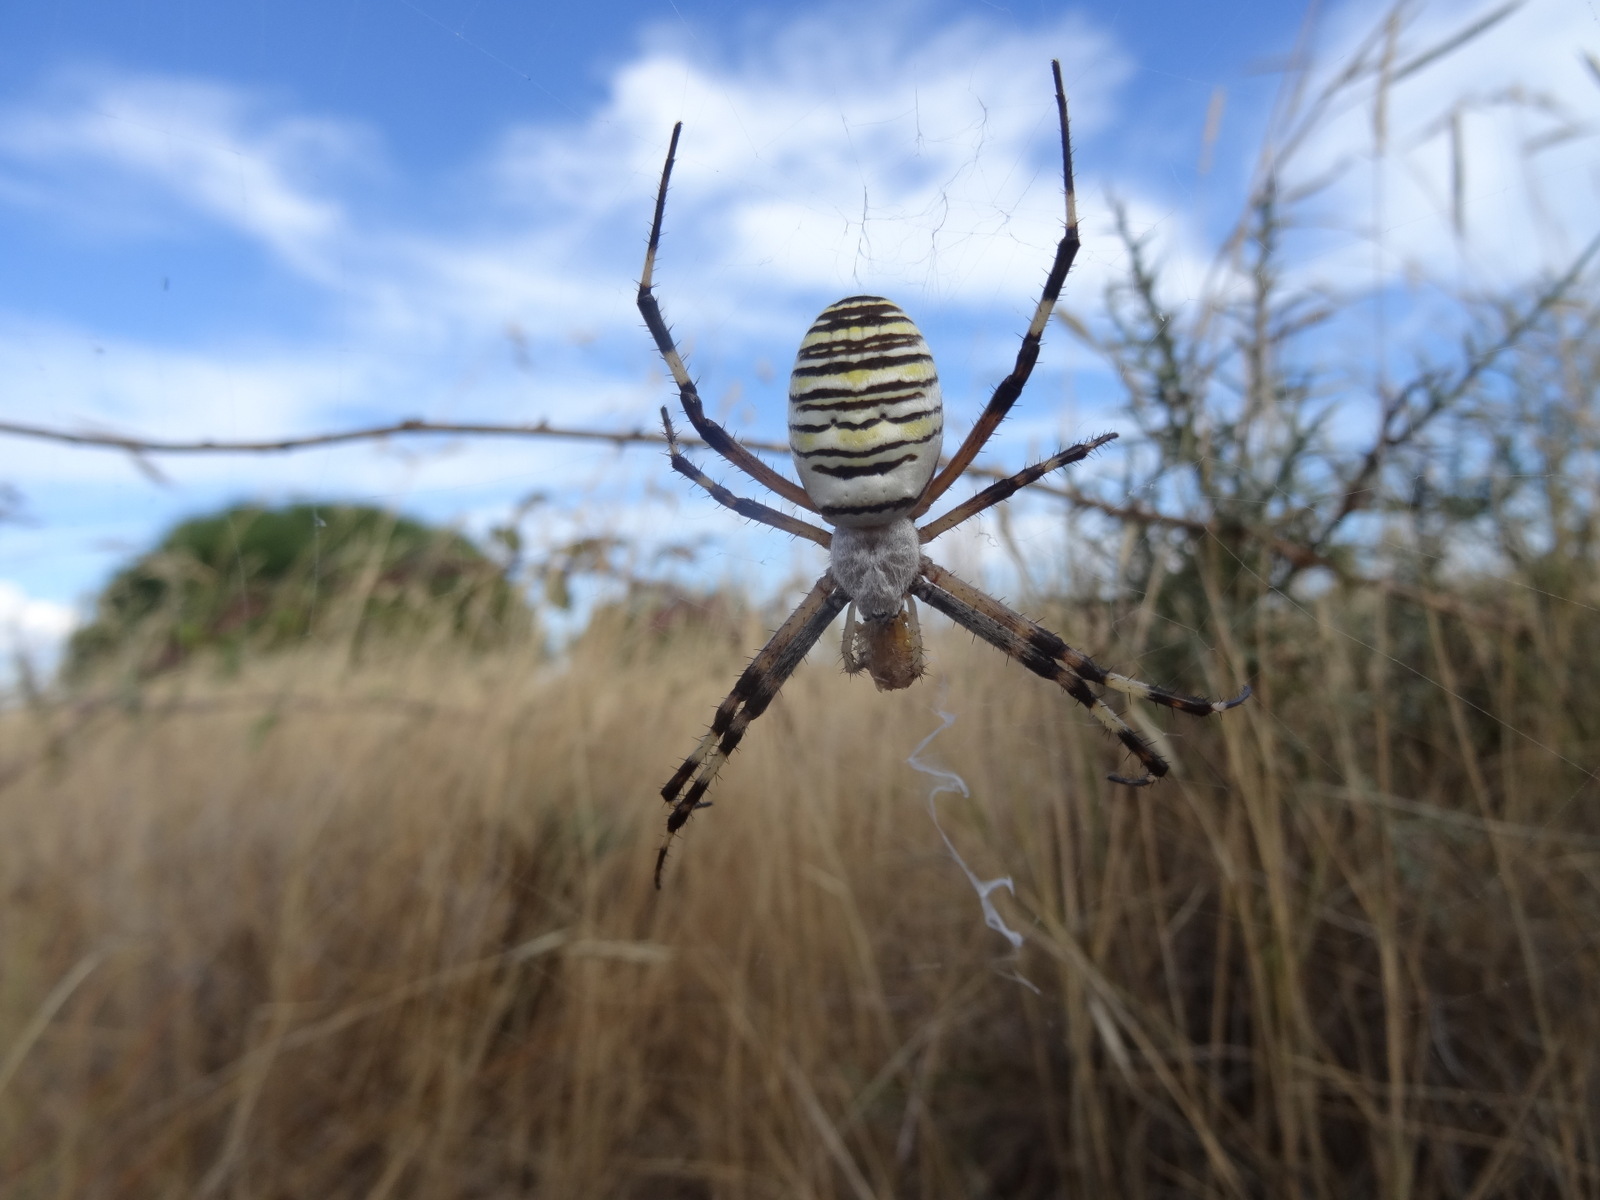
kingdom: Animalia
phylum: Arthropoda
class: Arachnida
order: Araneae
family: Araneidae
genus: Argiope
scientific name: Argiope bruennichi
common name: Wasp spider
